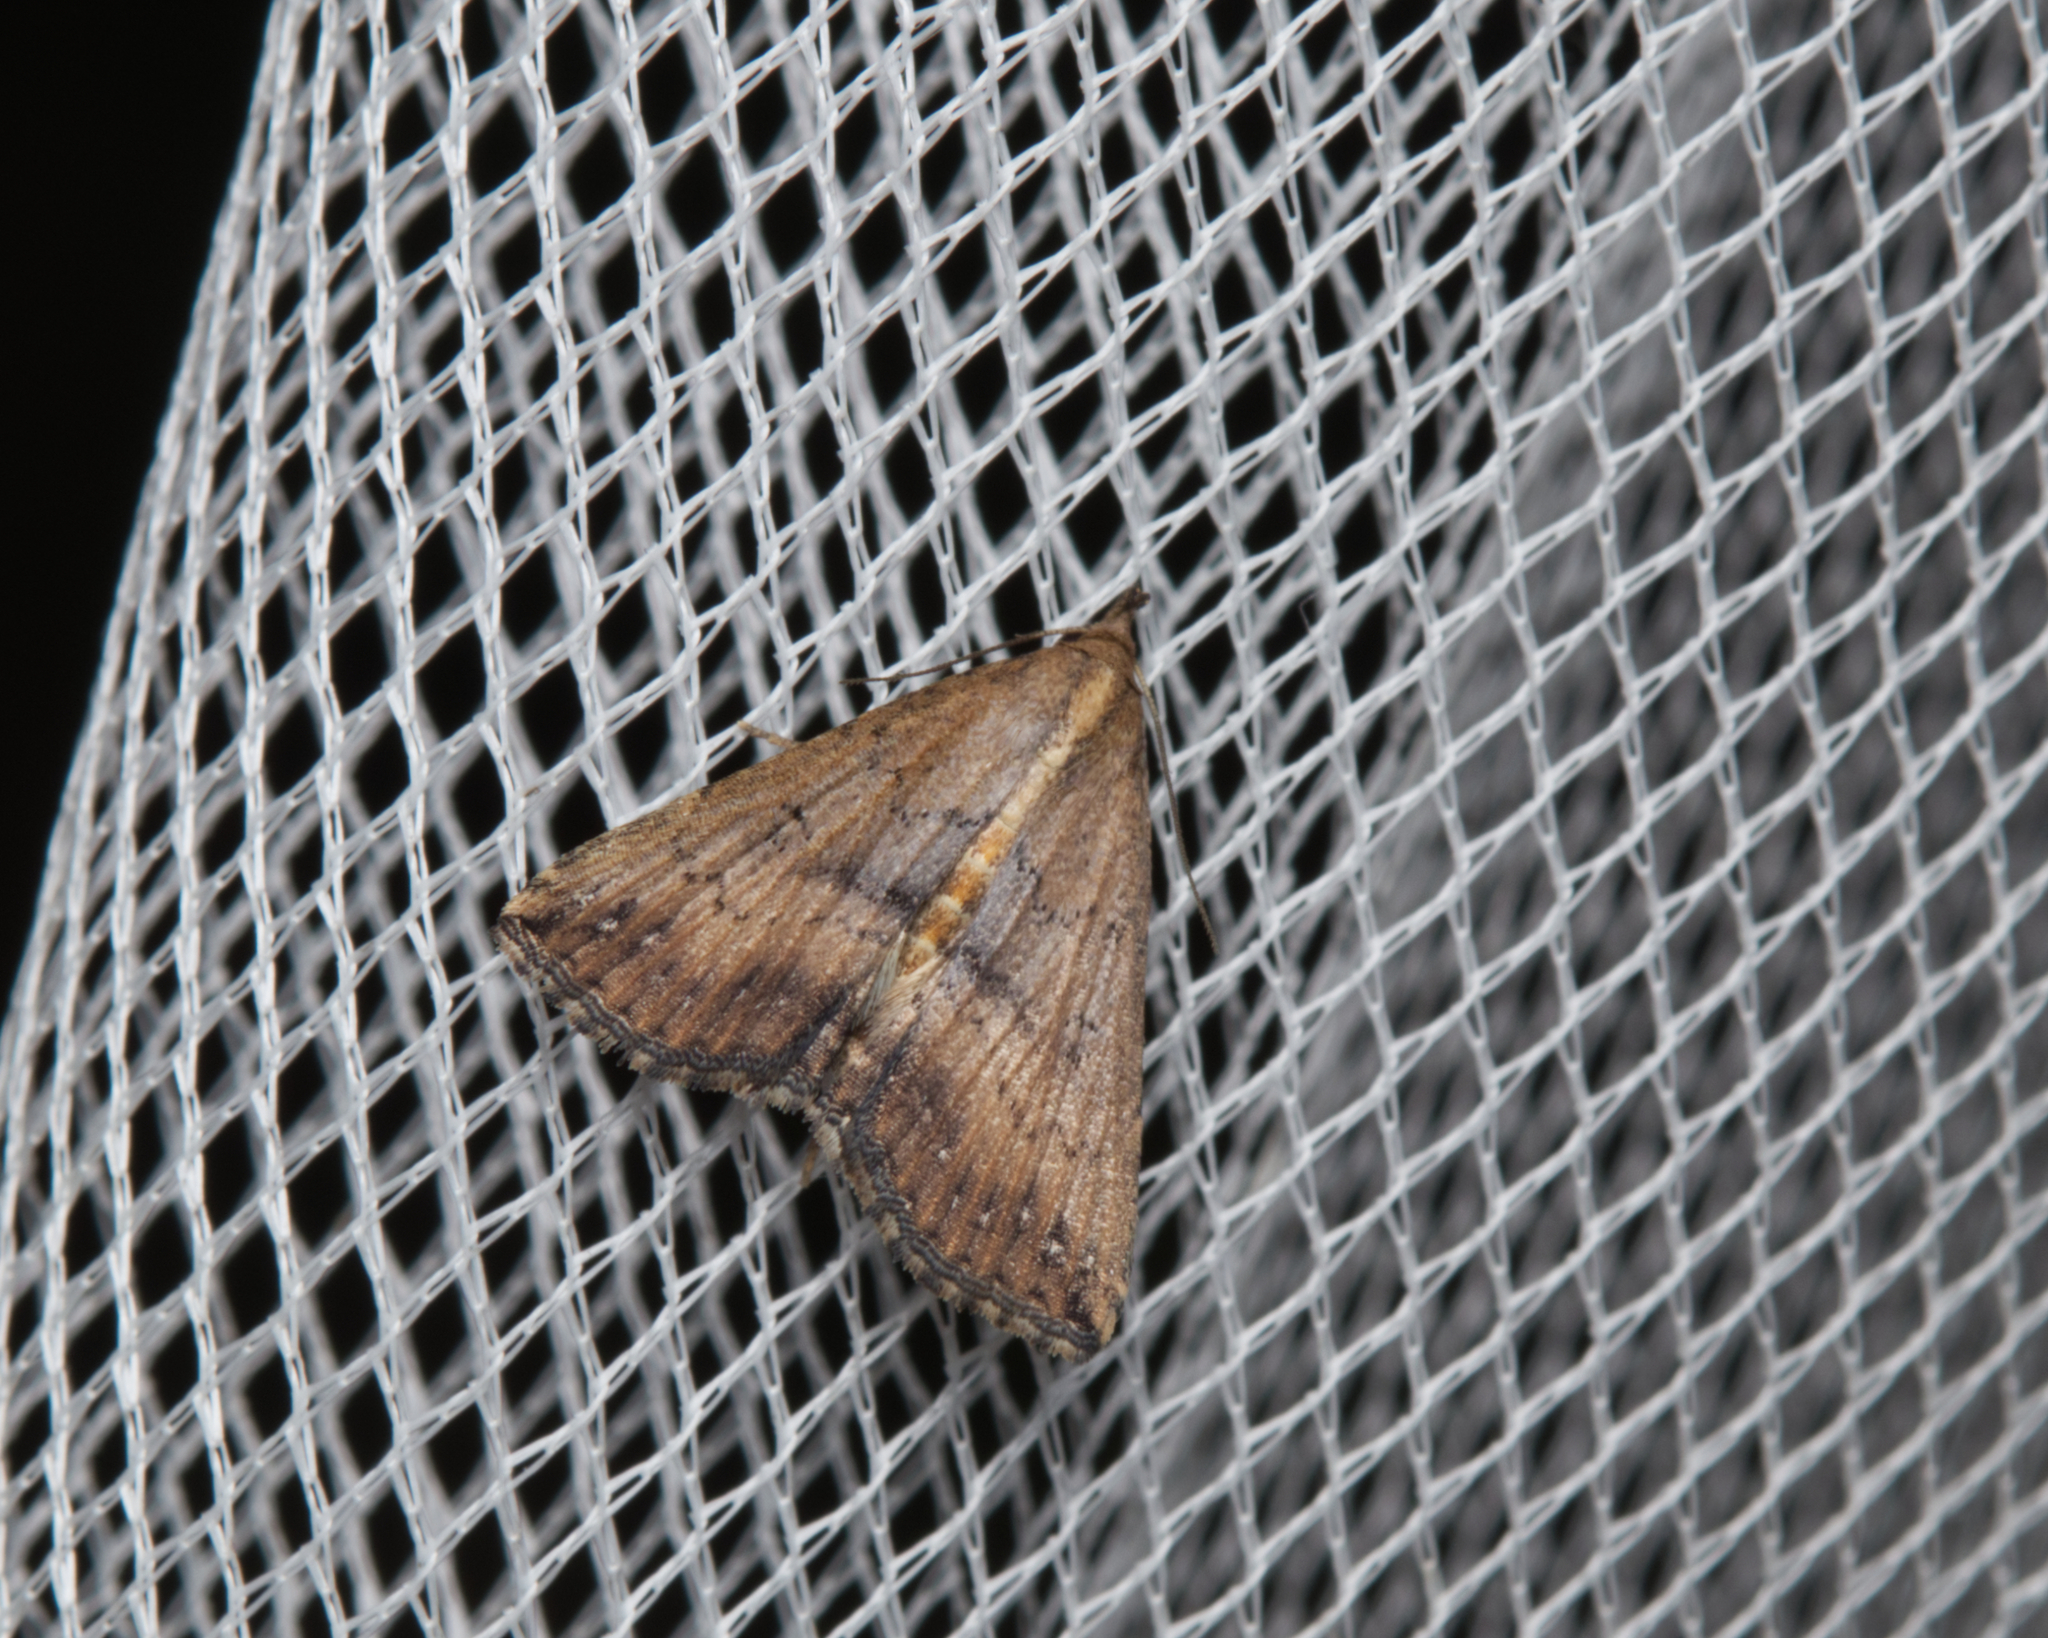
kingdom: Animalia
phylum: Arthropoda
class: Insecta
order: Lepidoptera
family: Erebidae
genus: Hypena
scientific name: Hypena umbrifera
